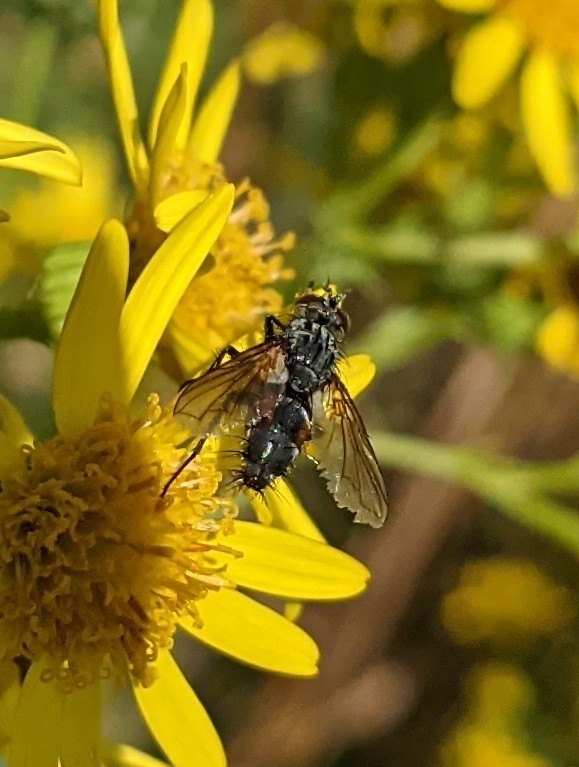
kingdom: Animalia
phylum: Arthropoda
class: Insecta
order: Diptera
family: Tachinidae
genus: Eriothrix
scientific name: Eriothrix rufomaculatus
